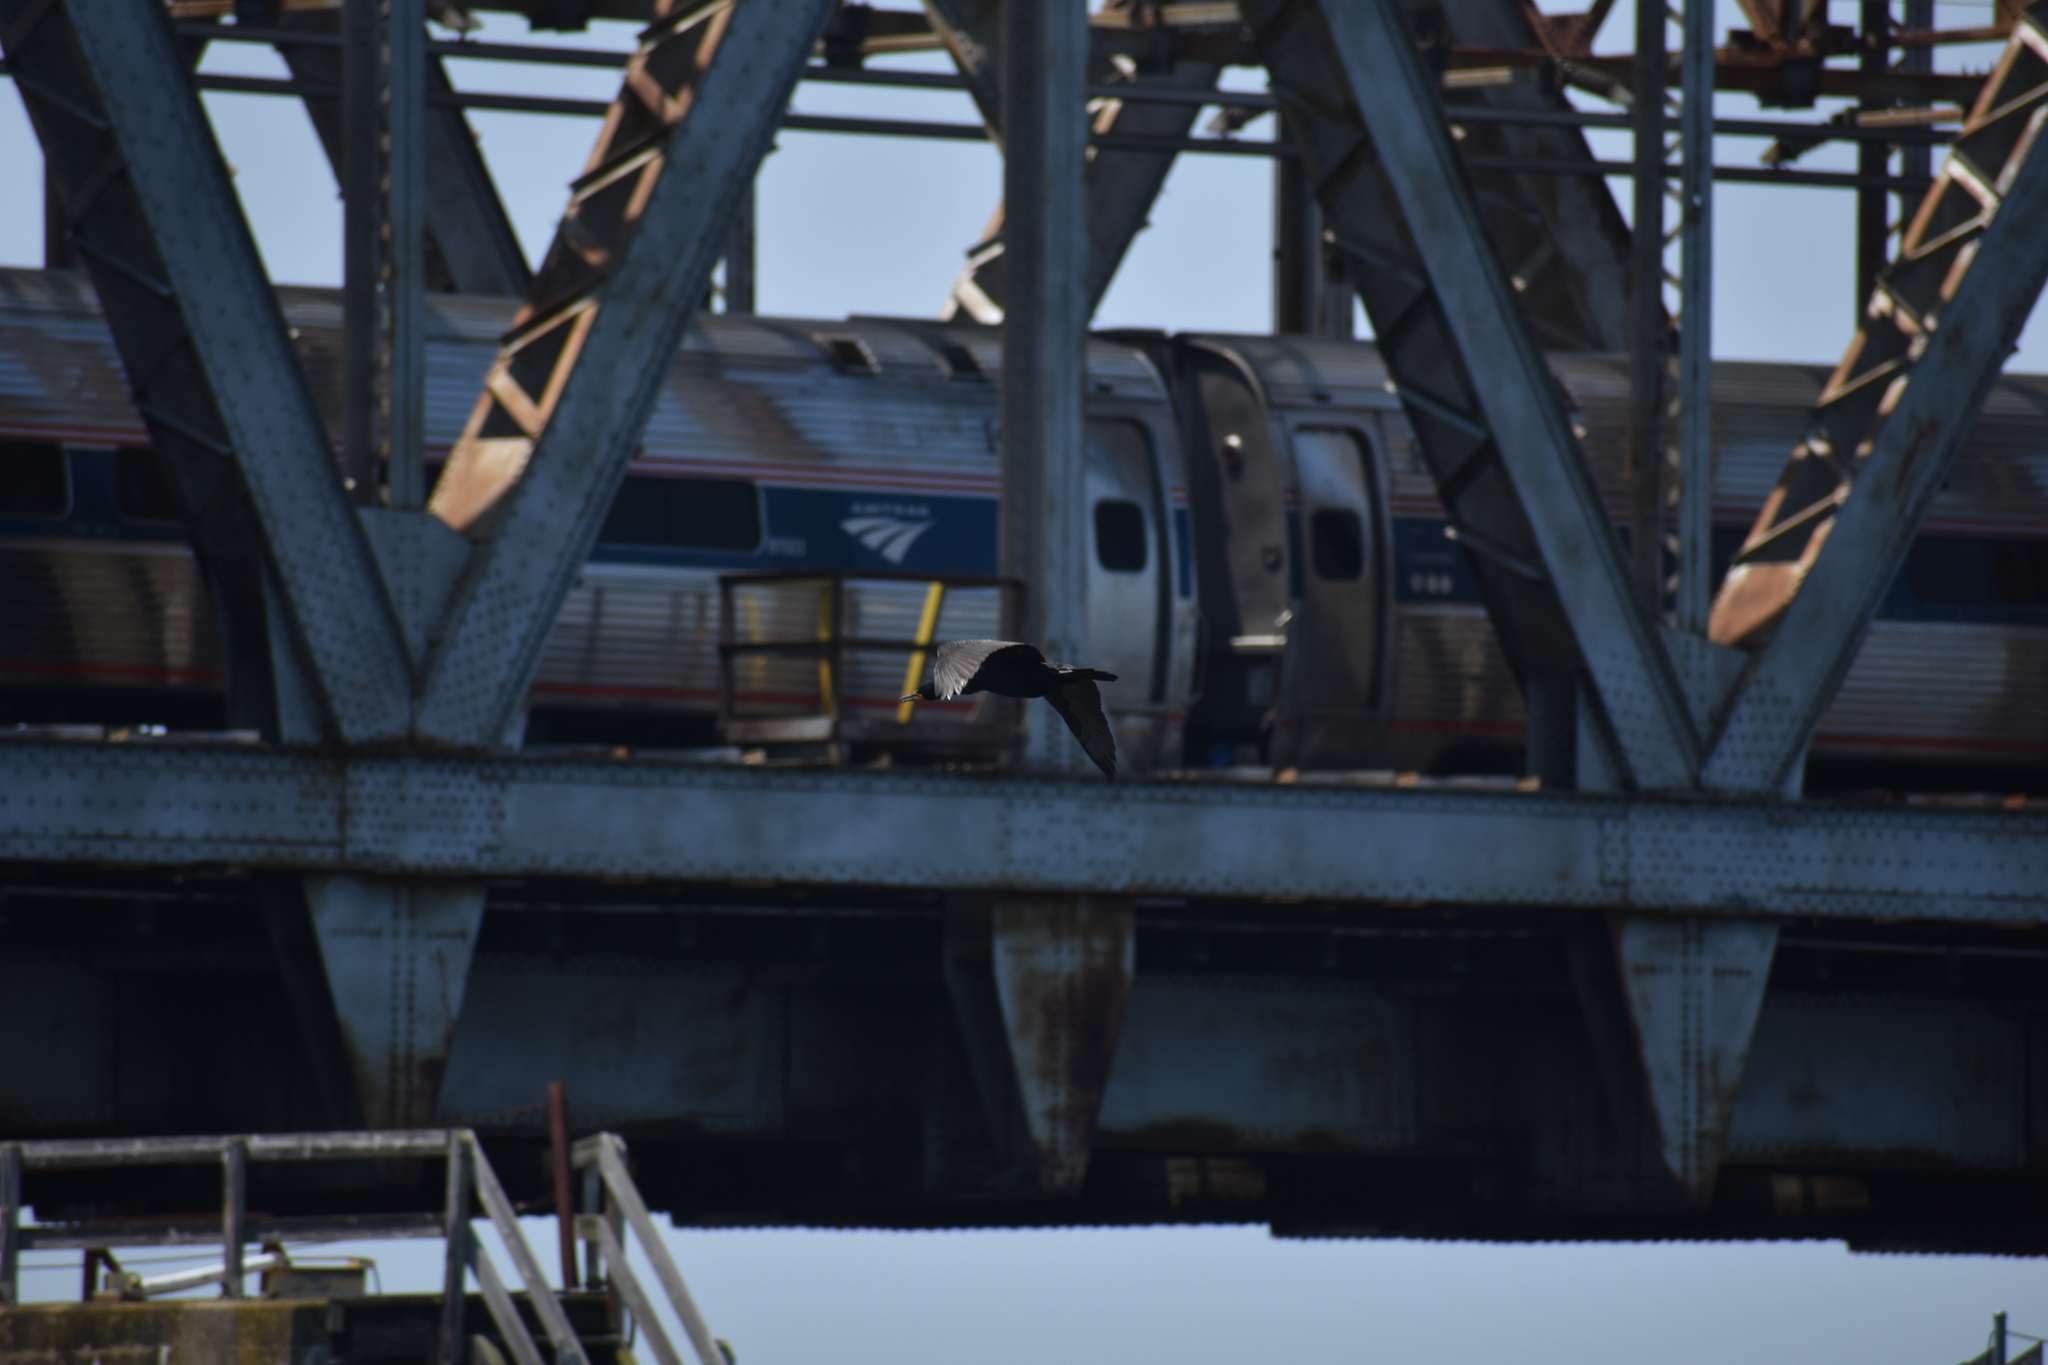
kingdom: Animalia
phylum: Chordata
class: Aves
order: Suliformes
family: Phalacrocoracidae
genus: Phalacrocorax
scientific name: Phalacrocorax auritus
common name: Double-crested cormorant
